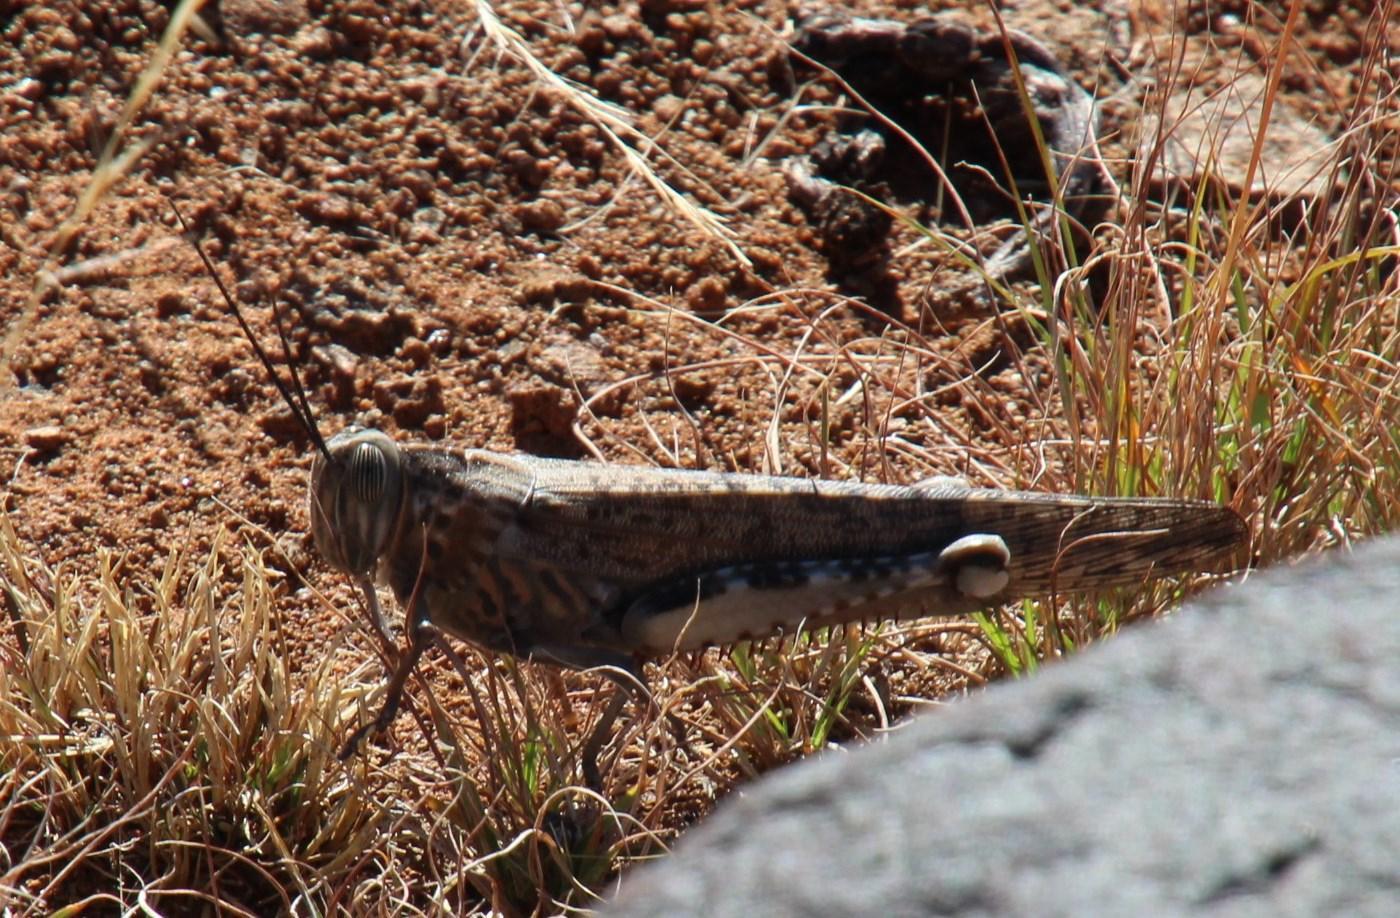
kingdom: Animalia
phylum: Arthropoda
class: Insecta
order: Orthoptera
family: Acrididae
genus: Anacridium
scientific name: Anacridium moestum
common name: Tree locust
